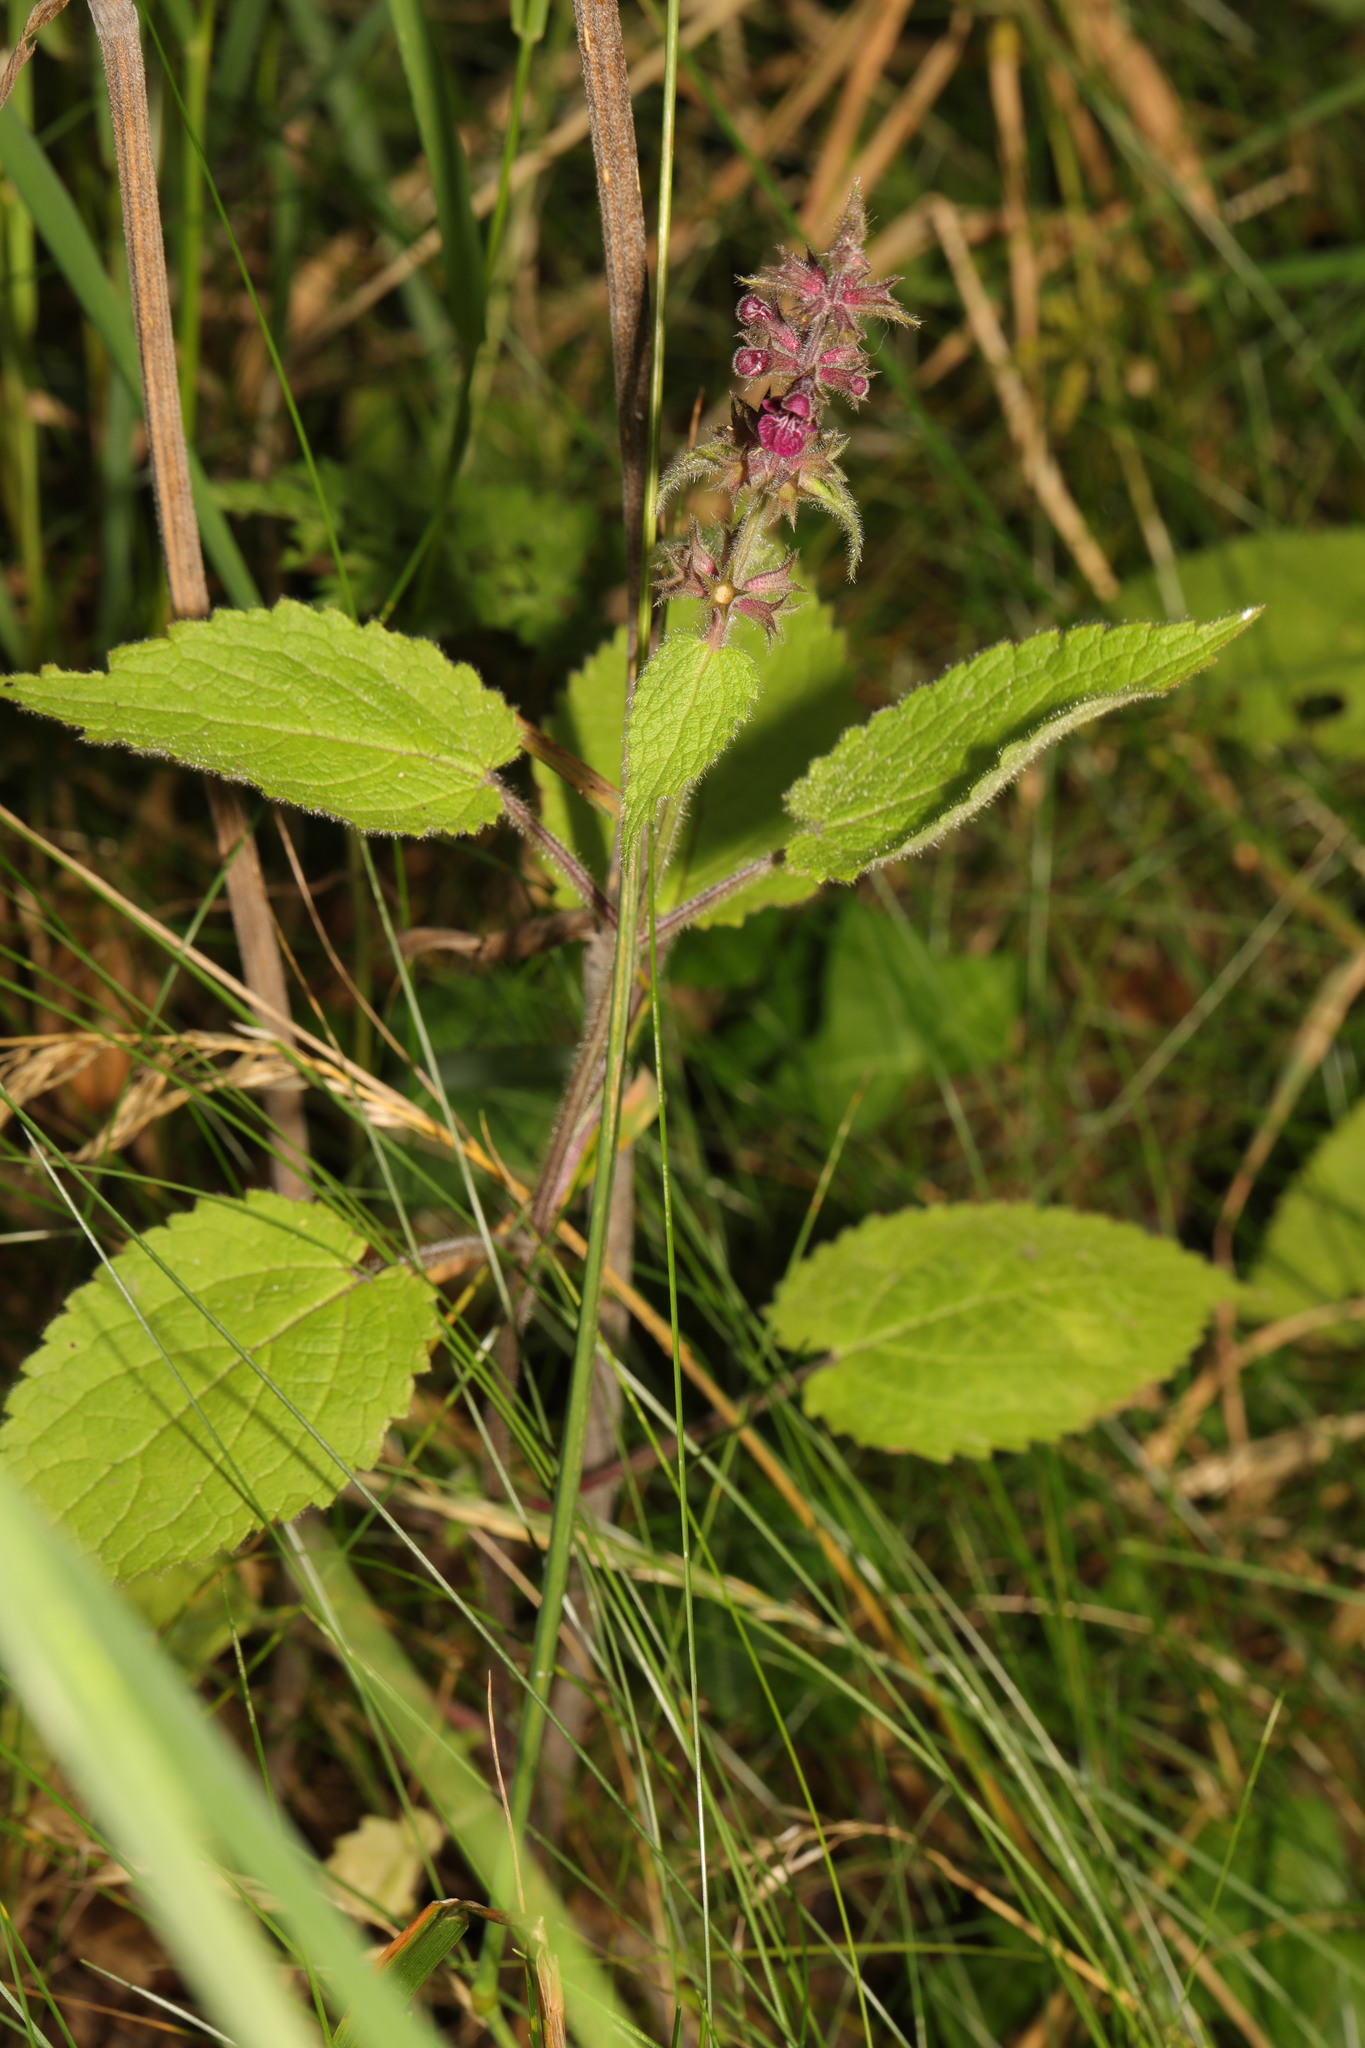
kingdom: Plantae
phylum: Tracheophyta
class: Magnoliopsida
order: Lamiales
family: Lamiaceae
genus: Stachys
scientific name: Stachys sylvatica
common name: Hedge woundwort
